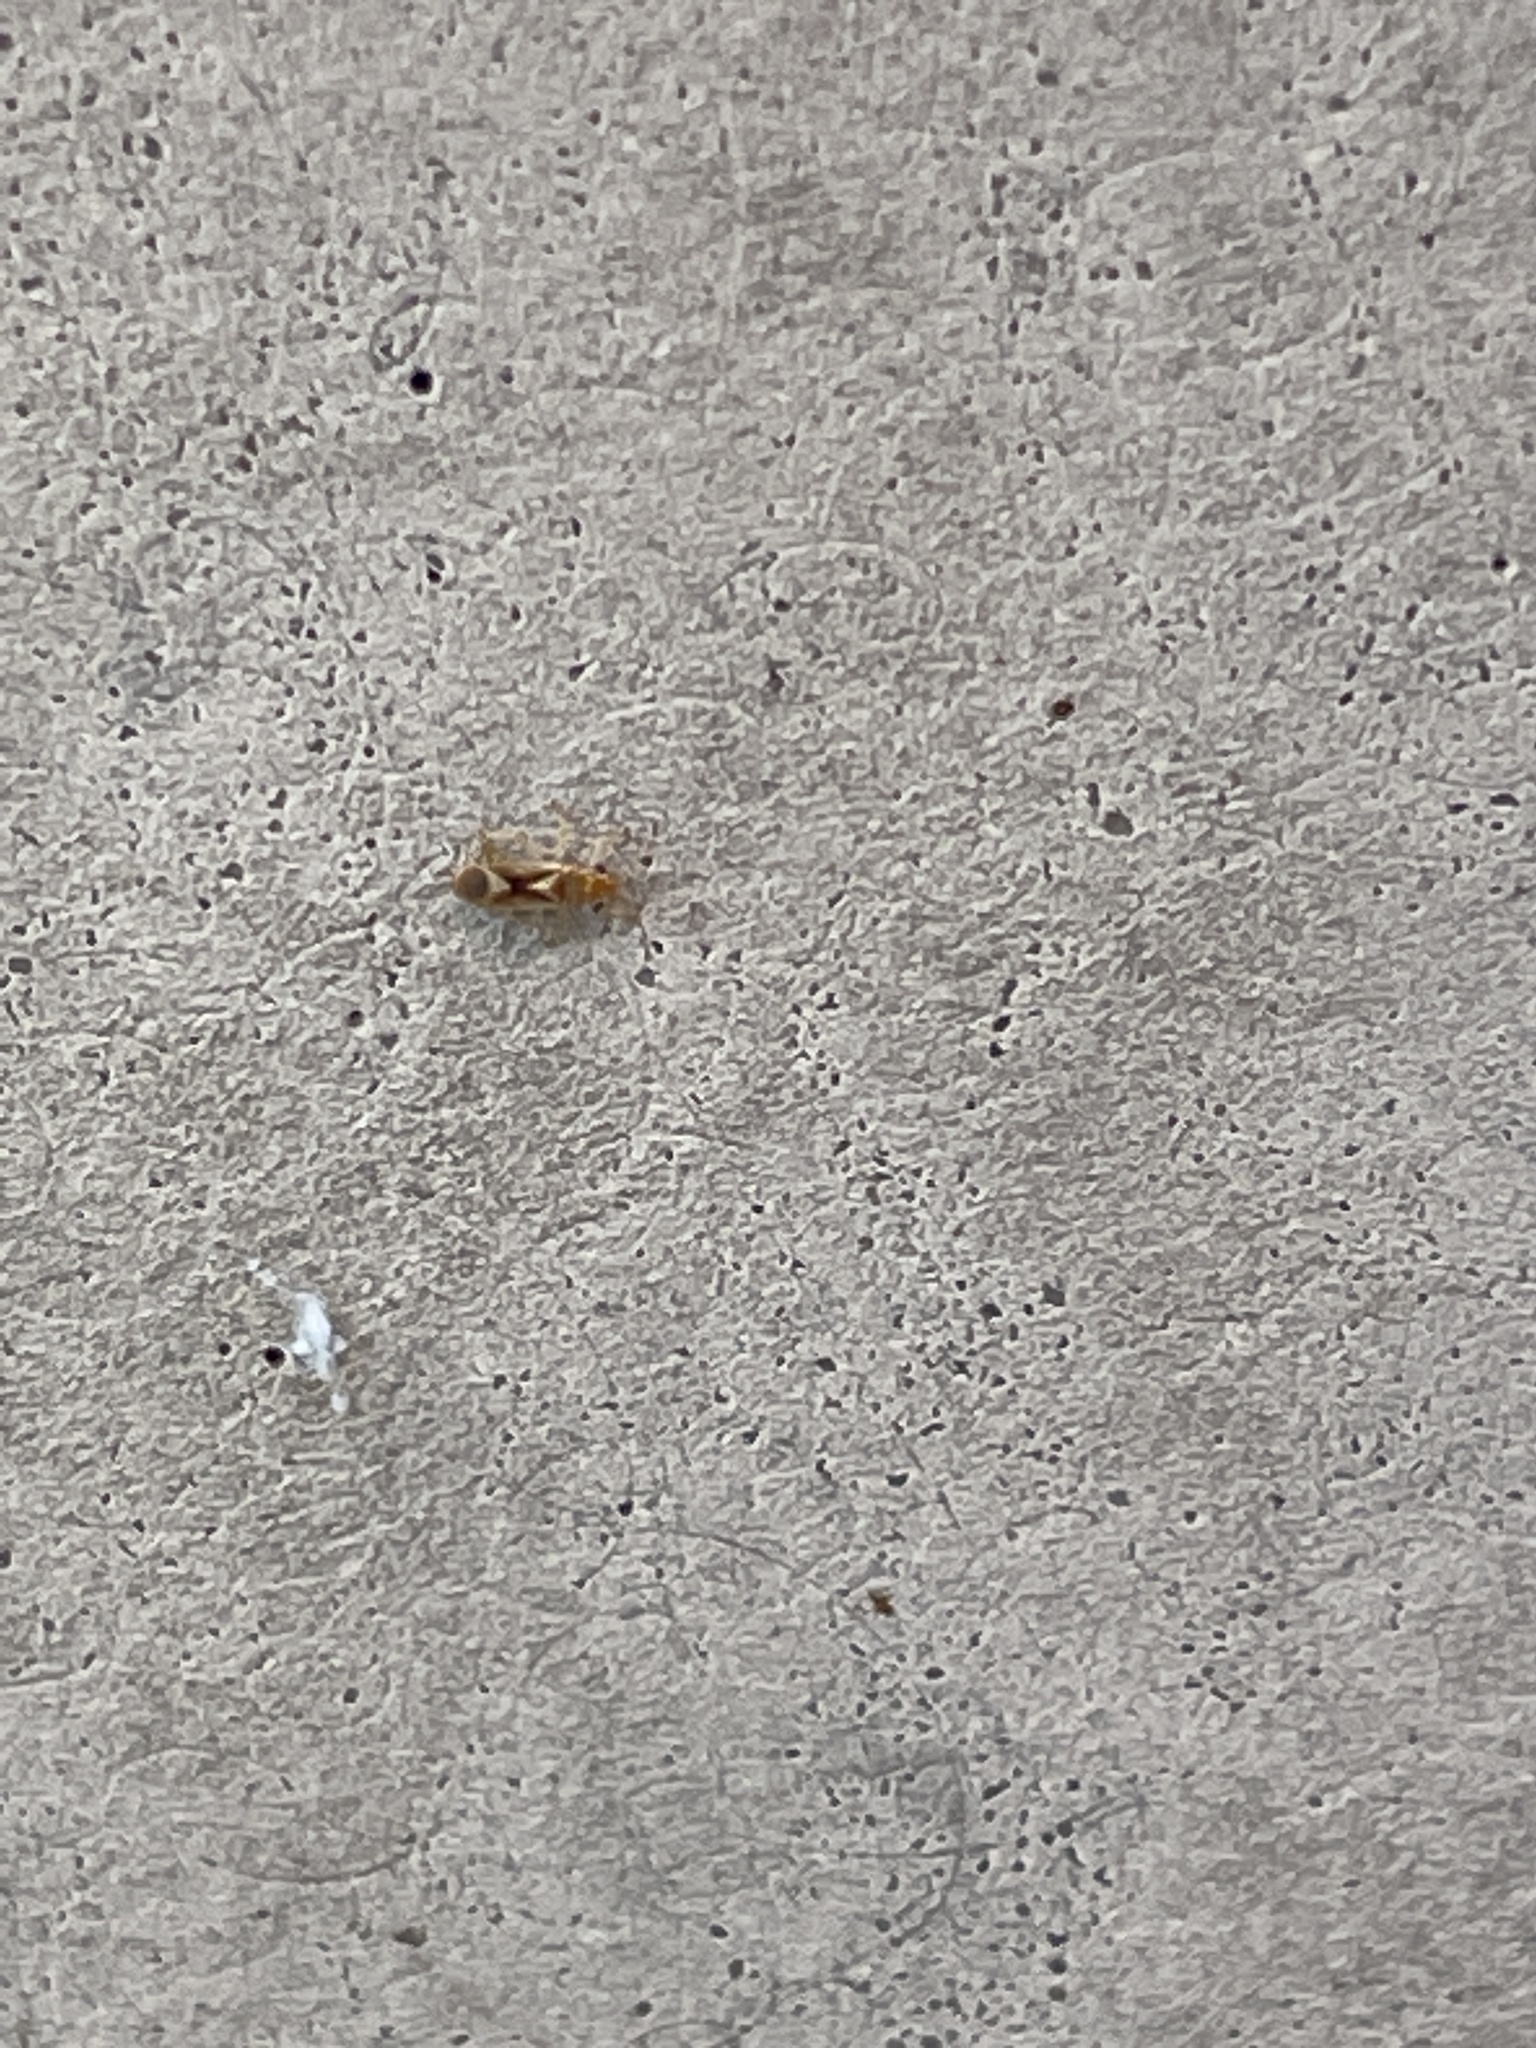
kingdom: Animalia
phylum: Arthropoda
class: Insecta
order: Hemiptera
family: Thaumastocoridae
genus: Thaumastocoris
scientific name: Thaumastocoris peregrinus
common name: Bronze bug
